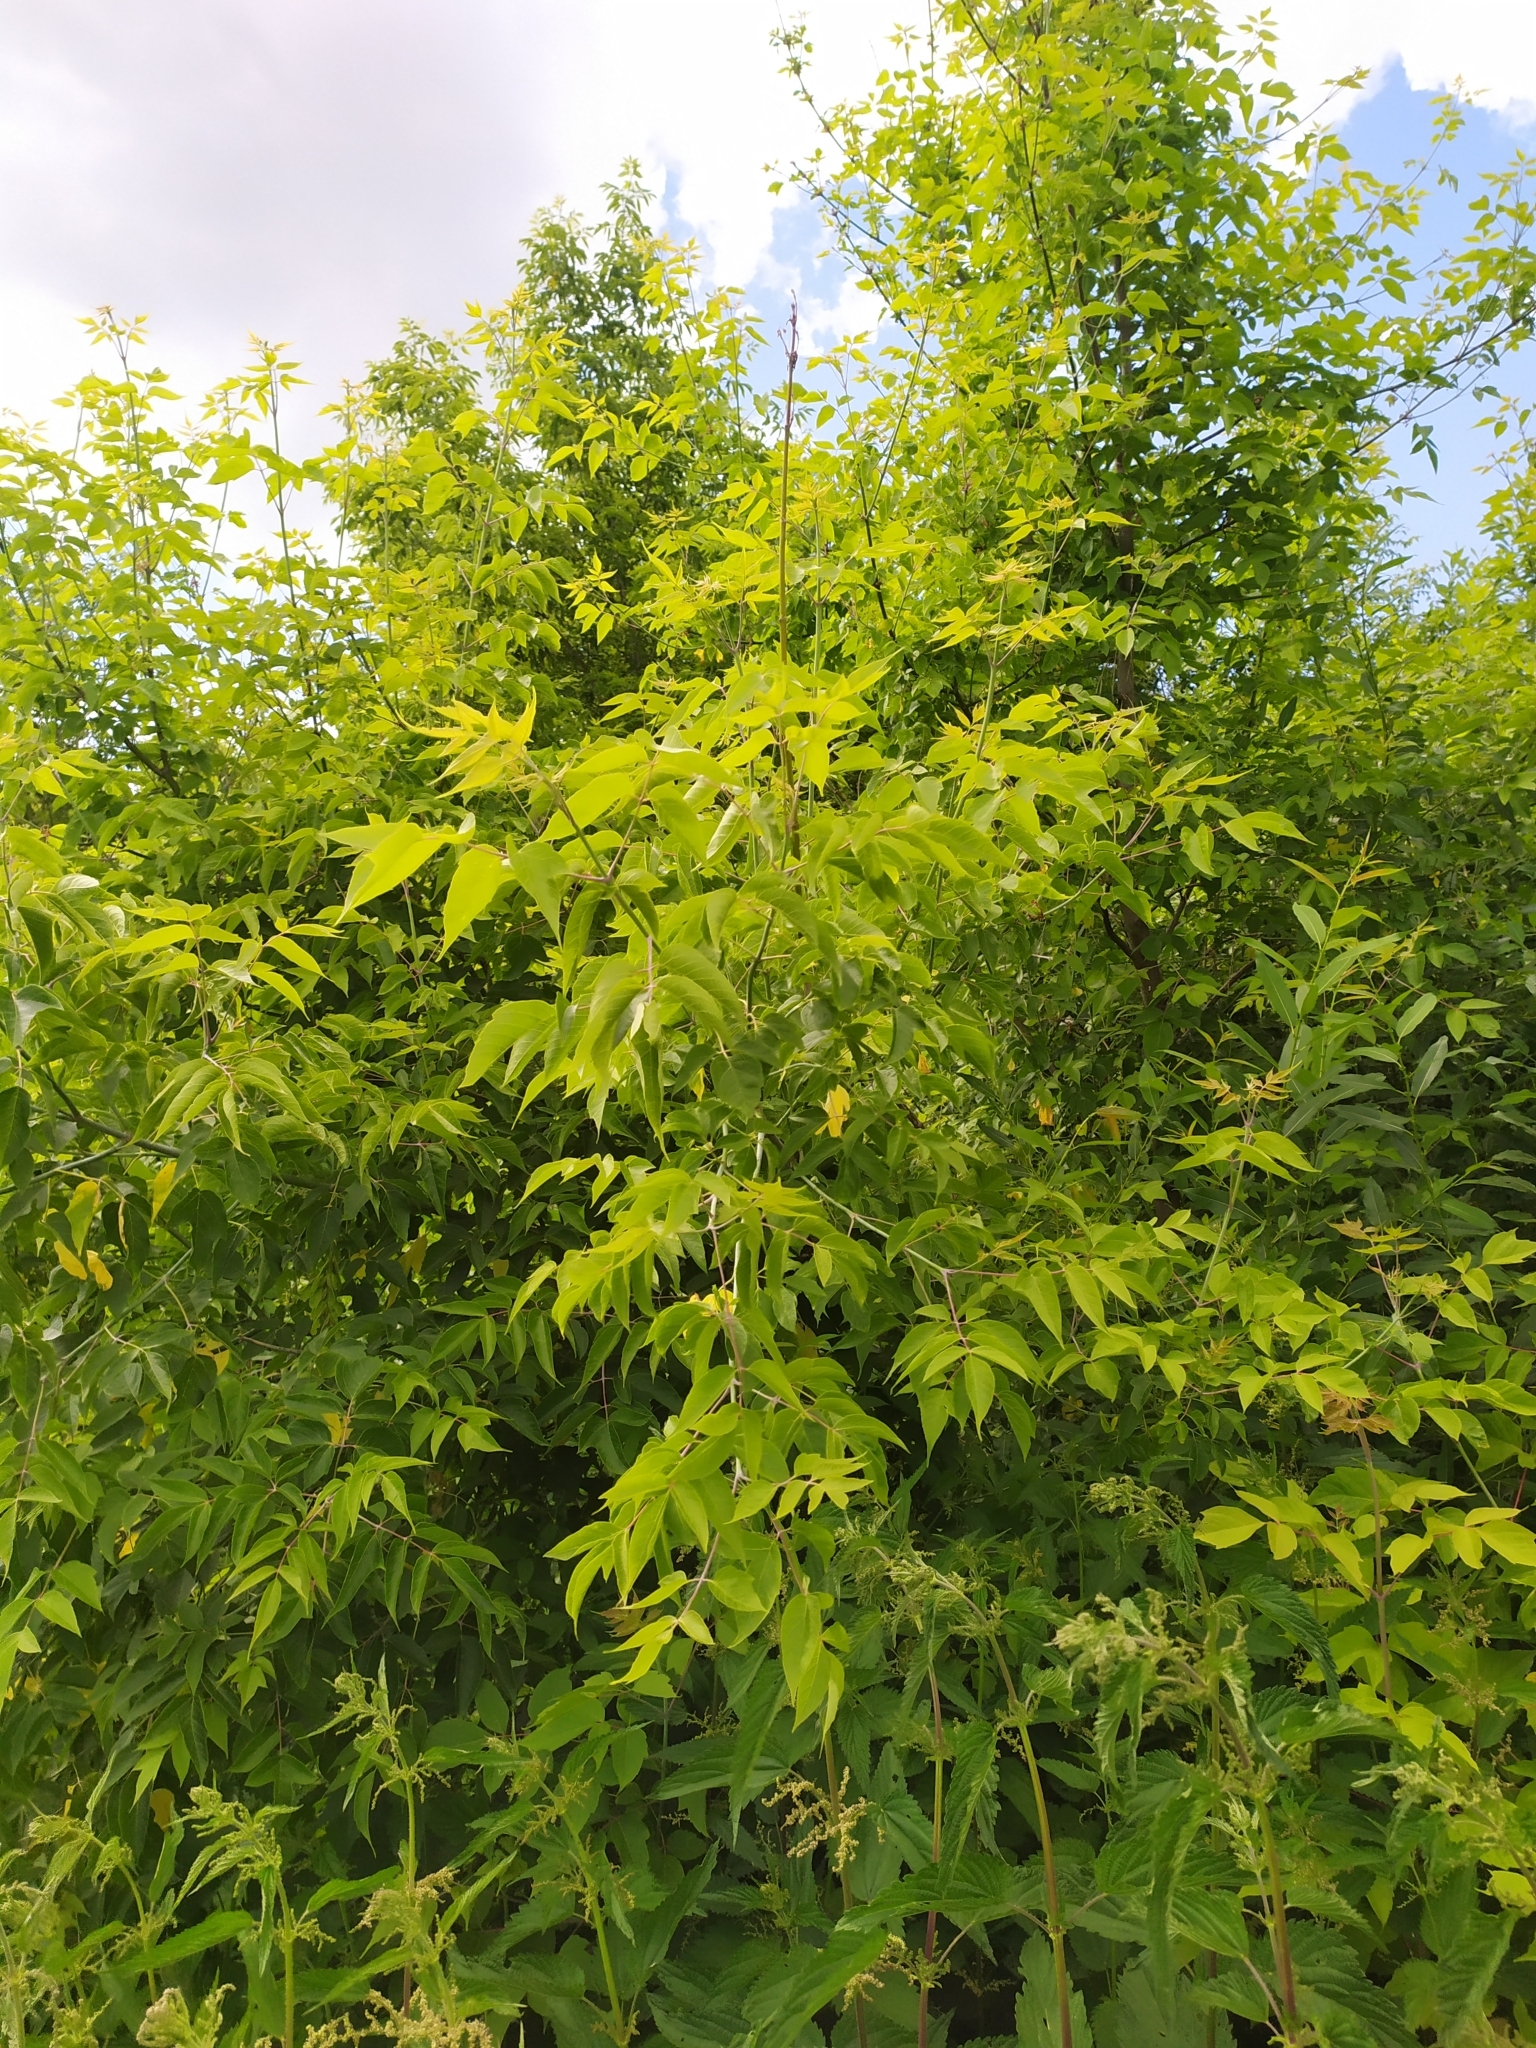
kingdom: Plantae
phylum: Tracheophyta
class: Magnoliopsida
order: Sapindales
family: Sapindaceae
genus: Acer
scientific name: Acer negundo
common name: Ashleaf maple
